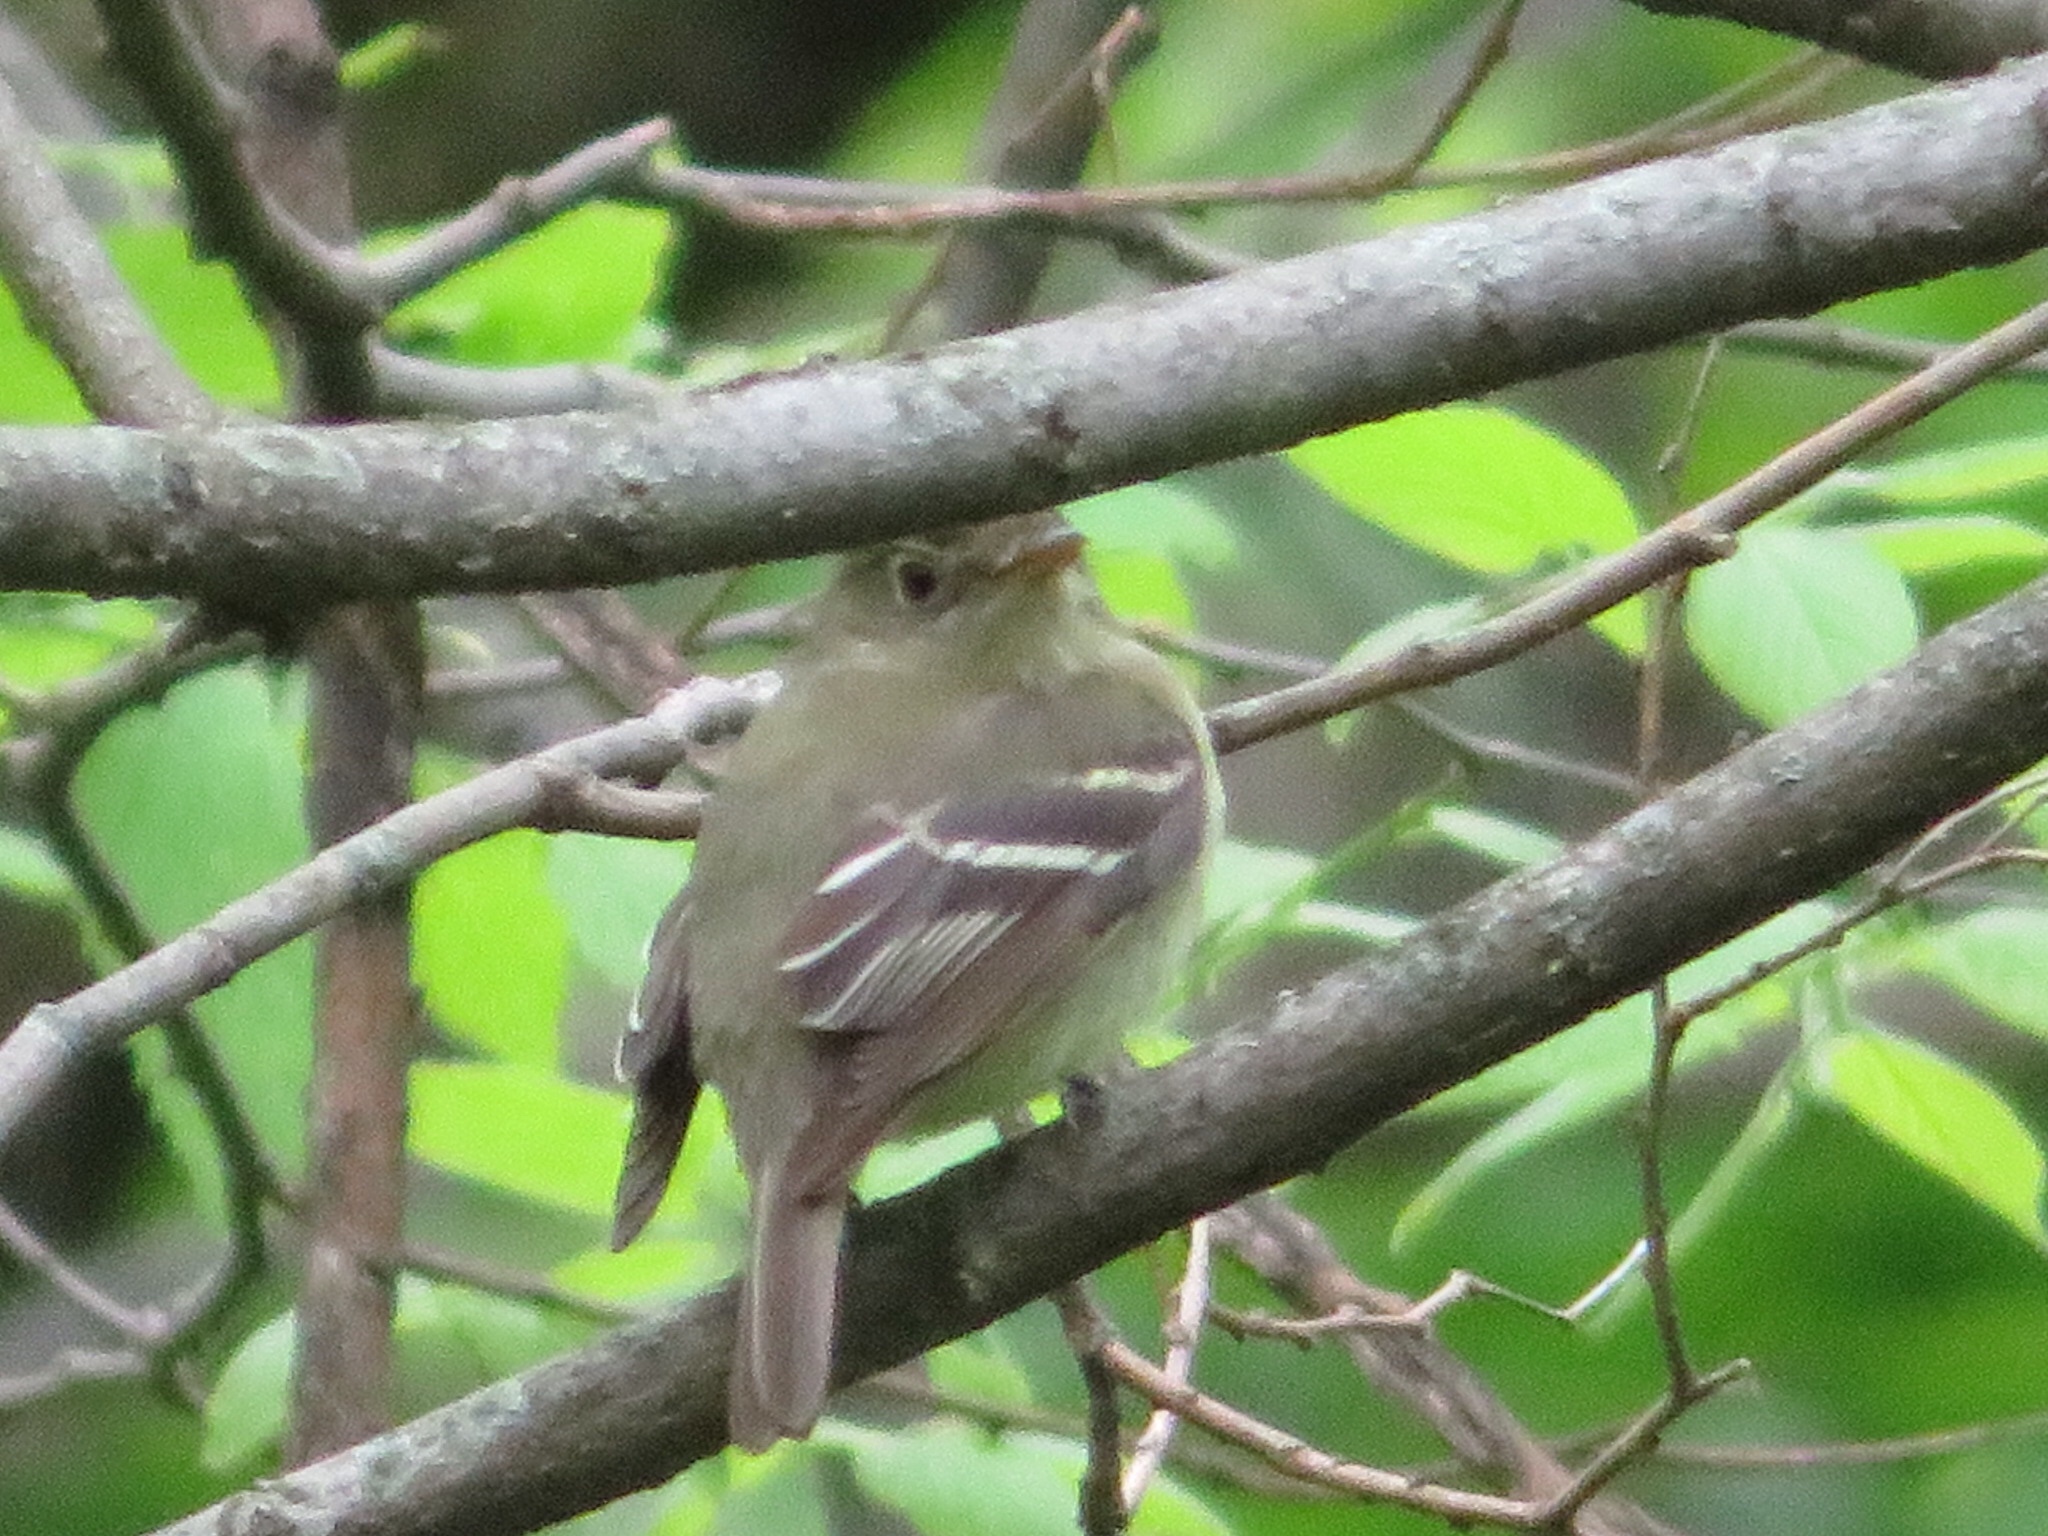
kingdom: Animalia
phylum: Chordata
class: Aves
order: Passeriformes
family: Tyrannidae
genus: Empidonax
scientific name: Empidonax virescens
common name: Acadian flycatcher
